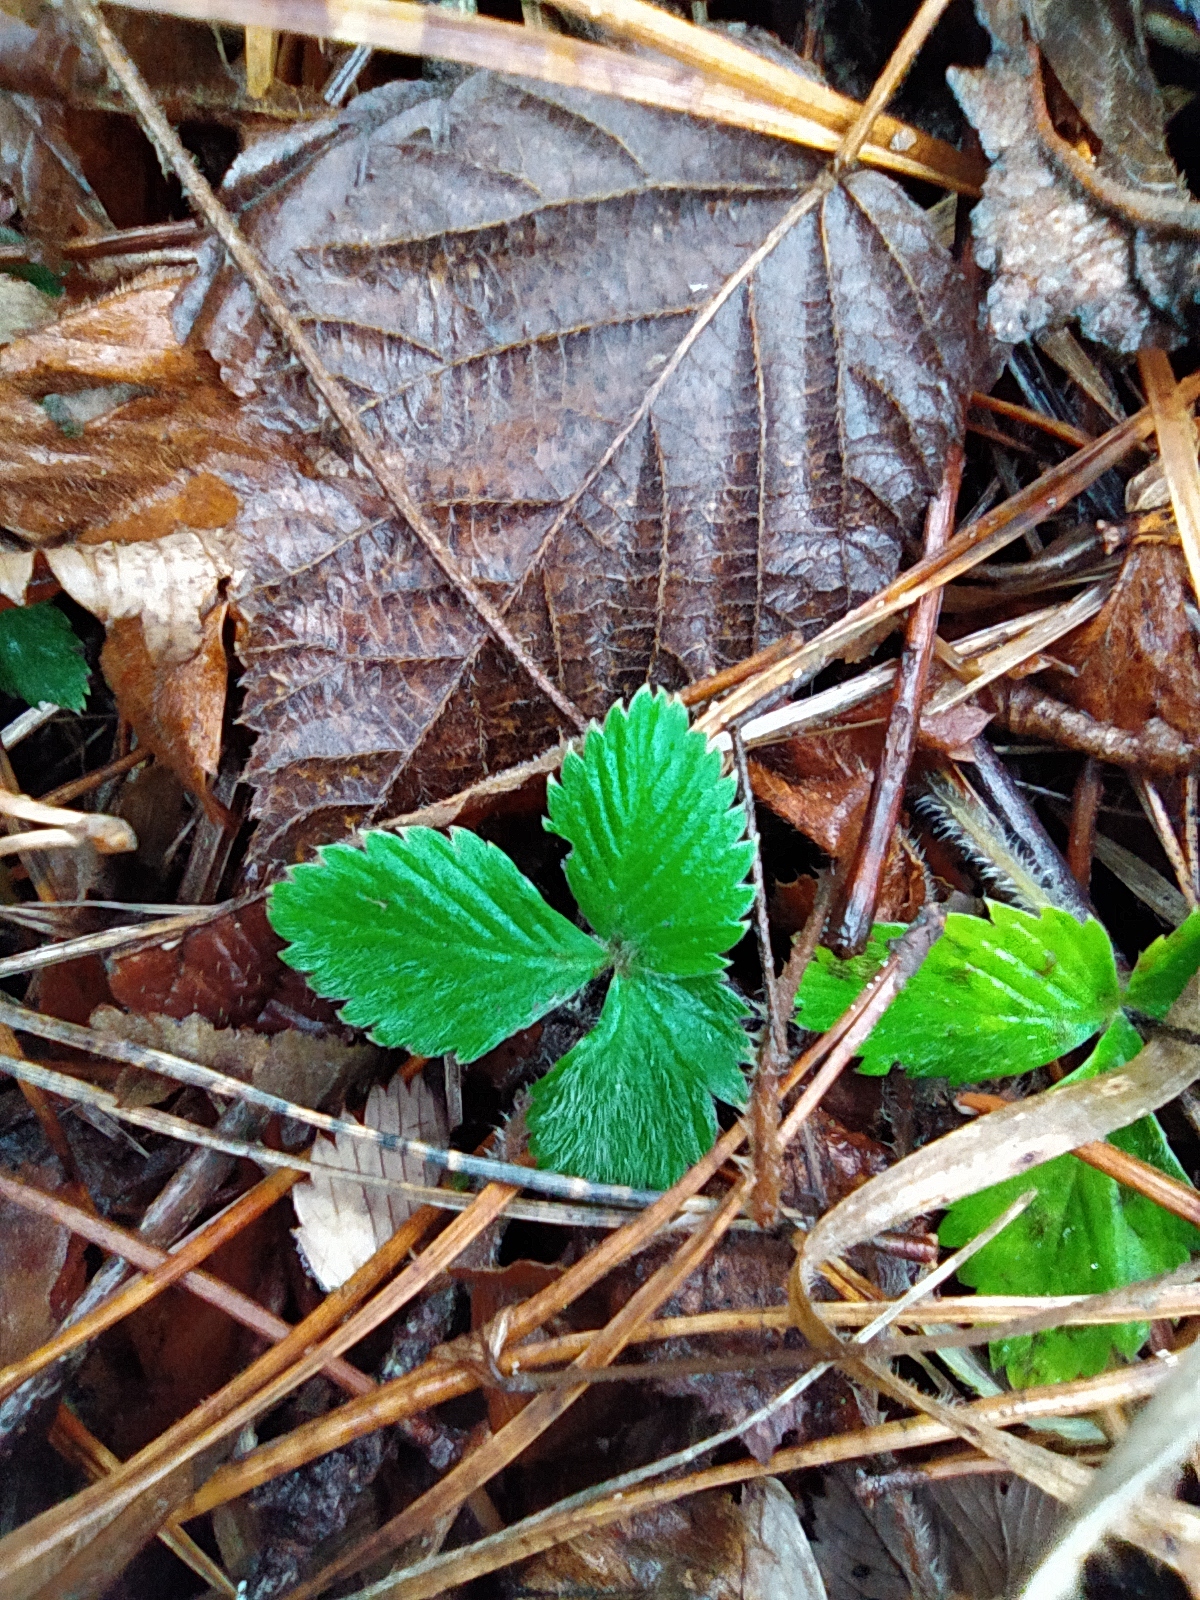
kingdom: Plantae
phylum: Tracheophyta
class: Magnoliopsida
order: Rosales
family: Rosaceae
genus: Fragaria
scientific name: Fragaria vesca
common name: Wild strawberry
